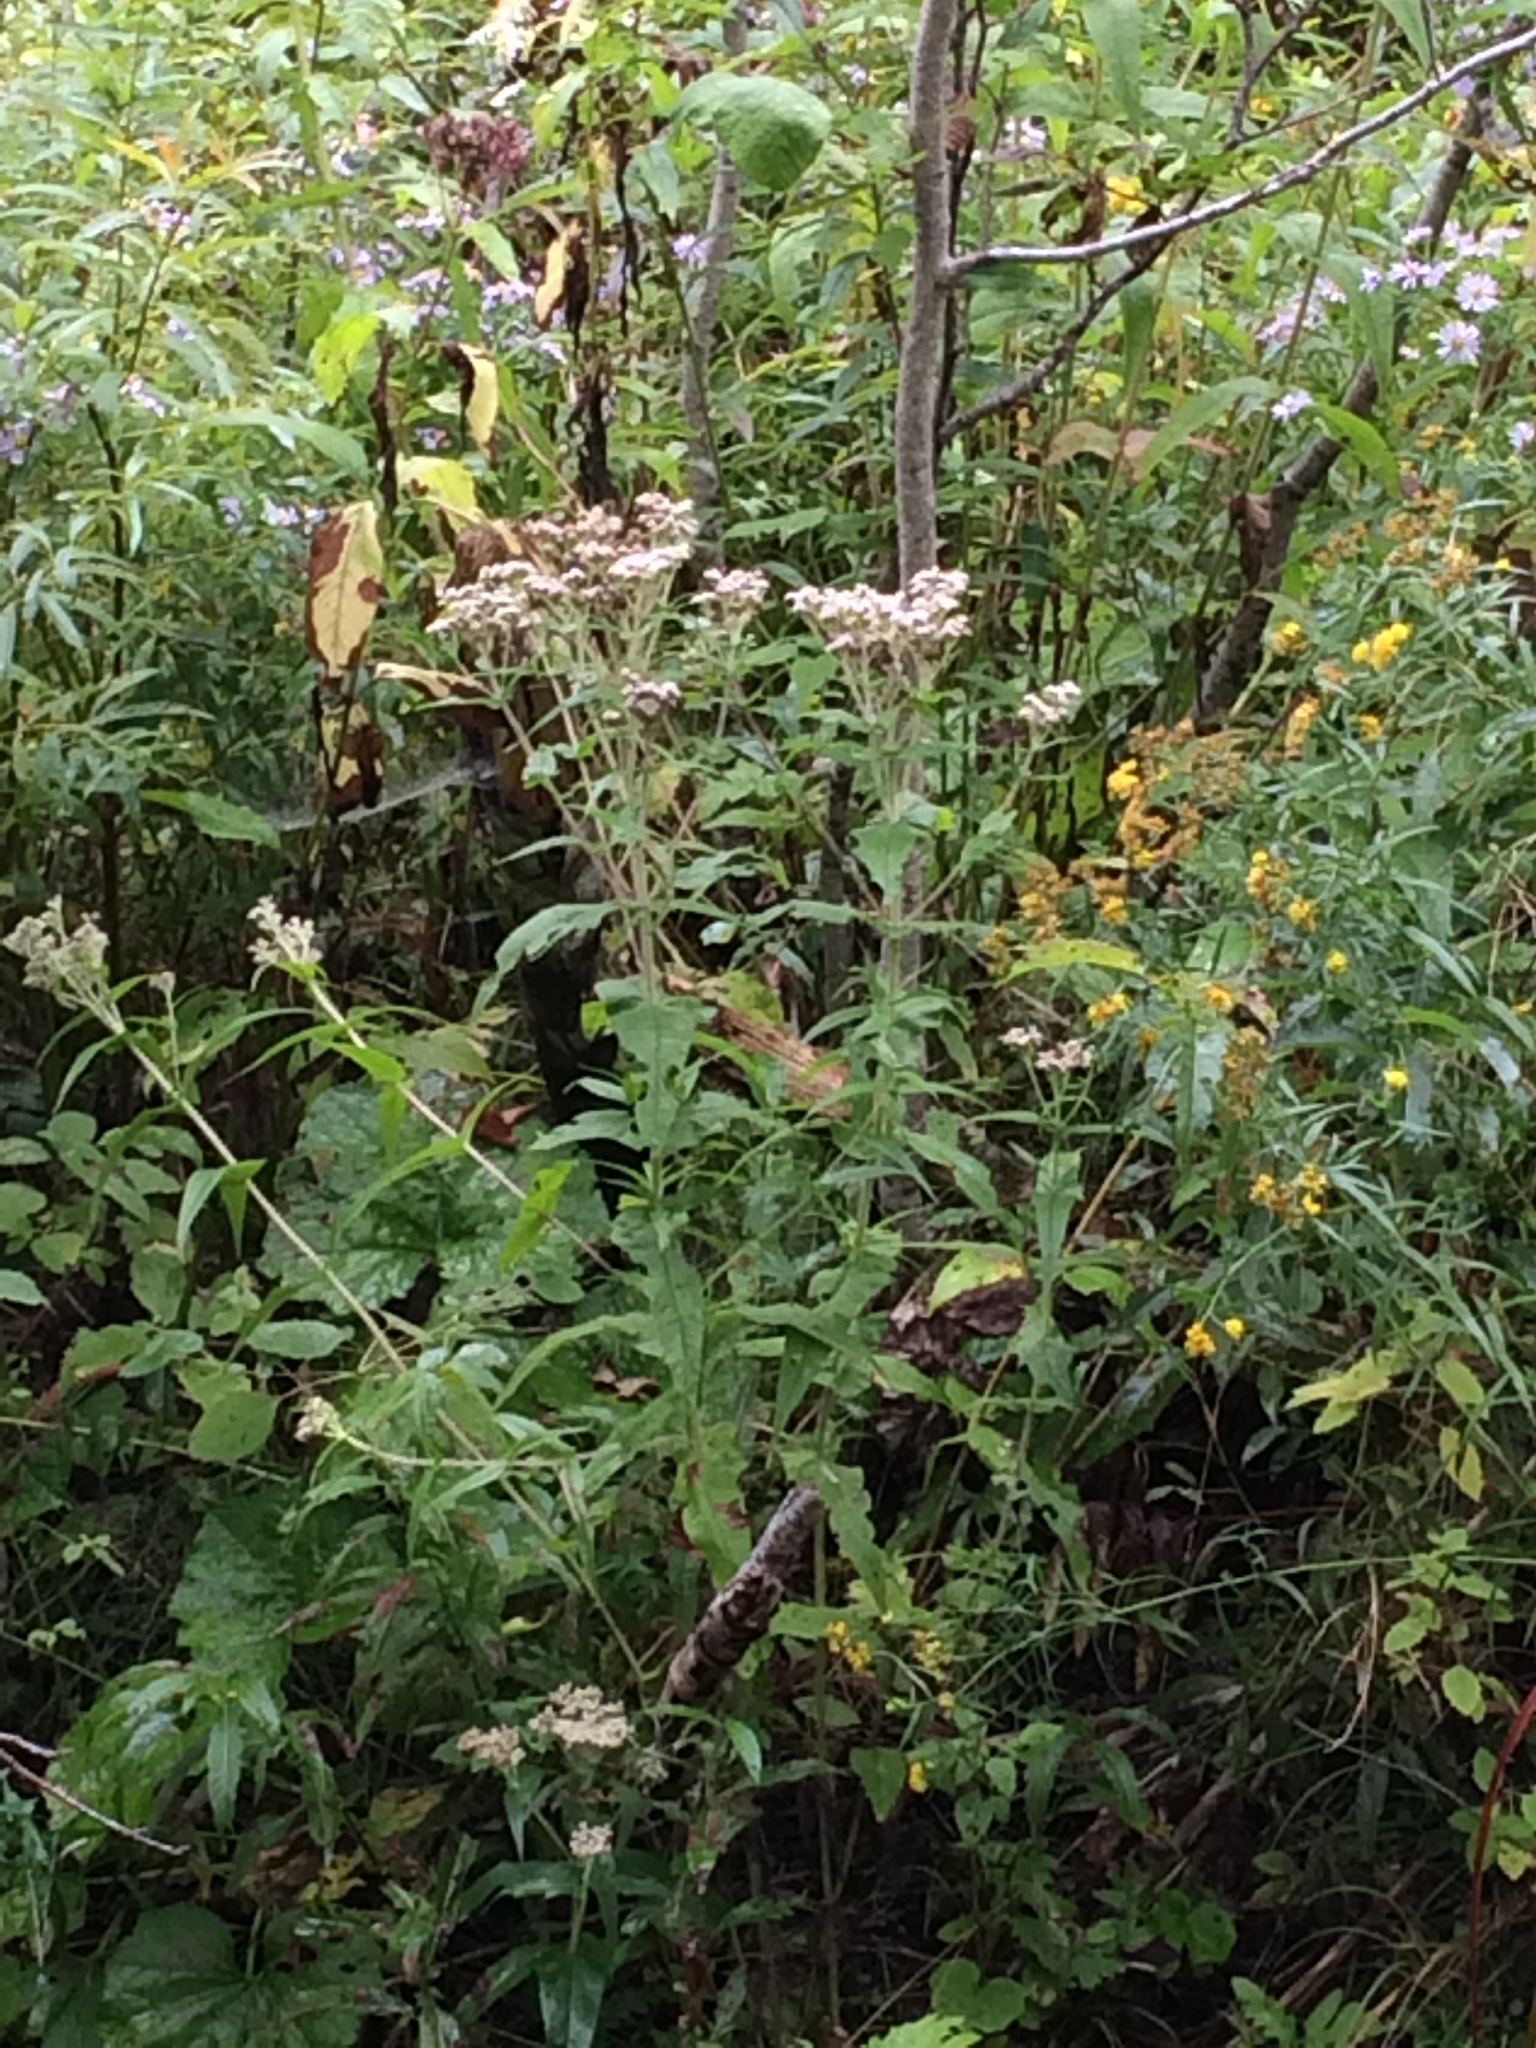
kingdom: Plantae
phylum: Tracheophyta
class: Magnoliopsida
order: Asterales
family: Asteraceae
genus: Eupatorium
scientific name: Eupatorium perfoliatum
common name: Boneset
